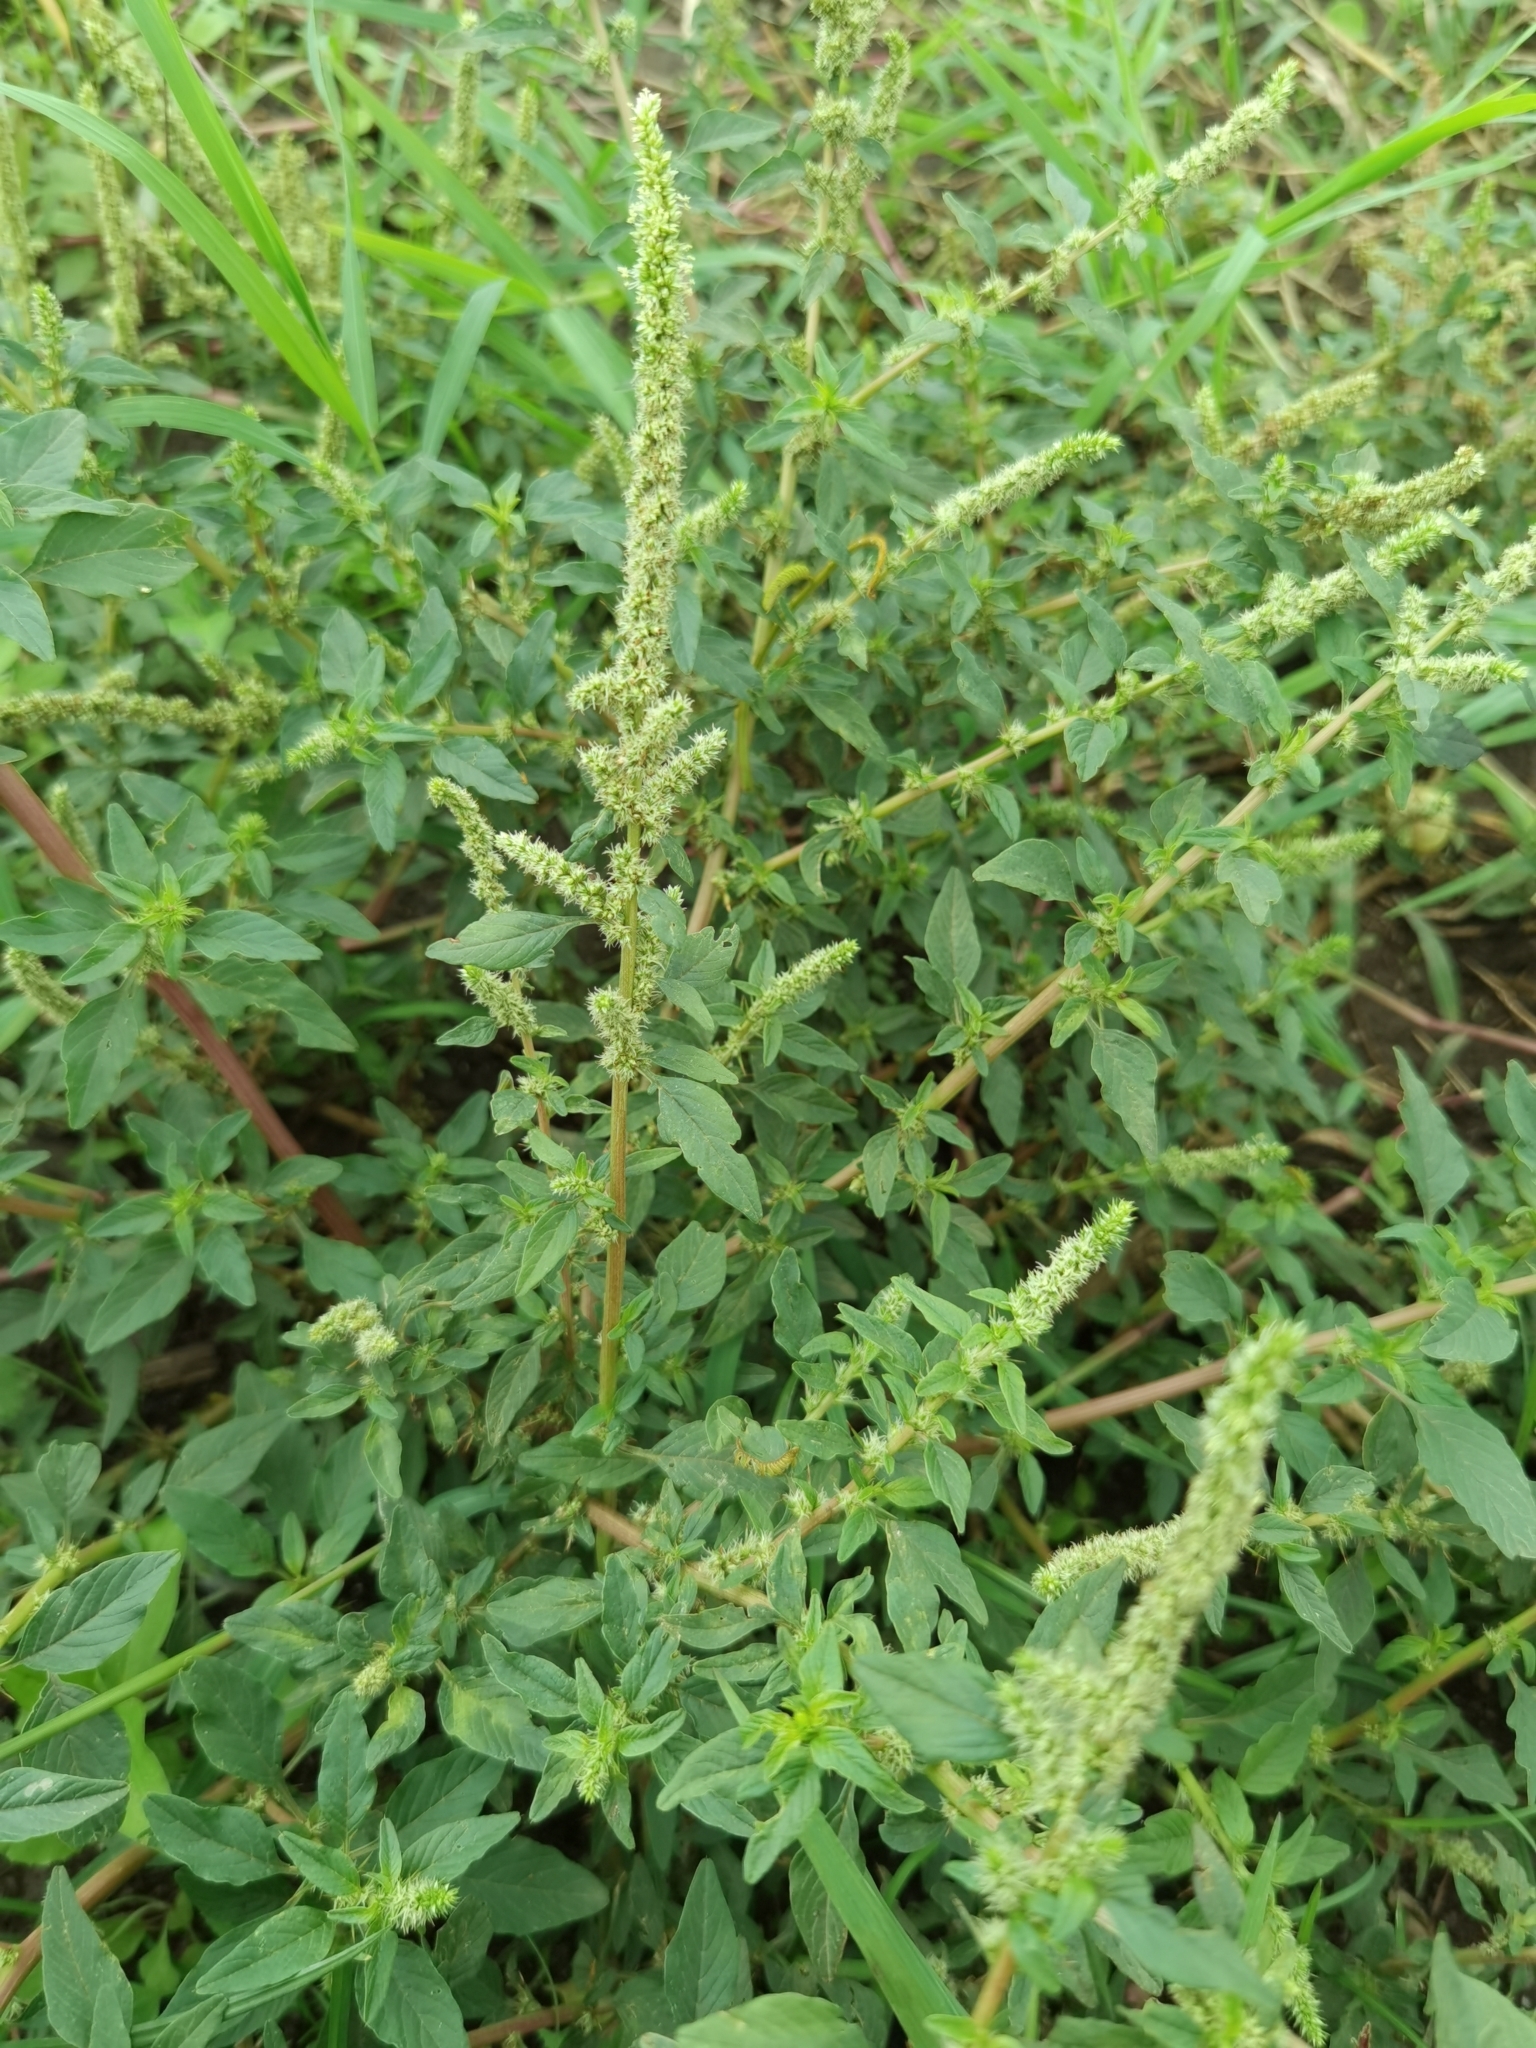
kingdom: Plantae
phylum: Tracheophyta
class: Magnoliopsida
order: Caryophyllales
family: Amaranthaceae
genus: Amaranthus
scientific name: Amaranthus spinosus
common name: Spiny amaranth
